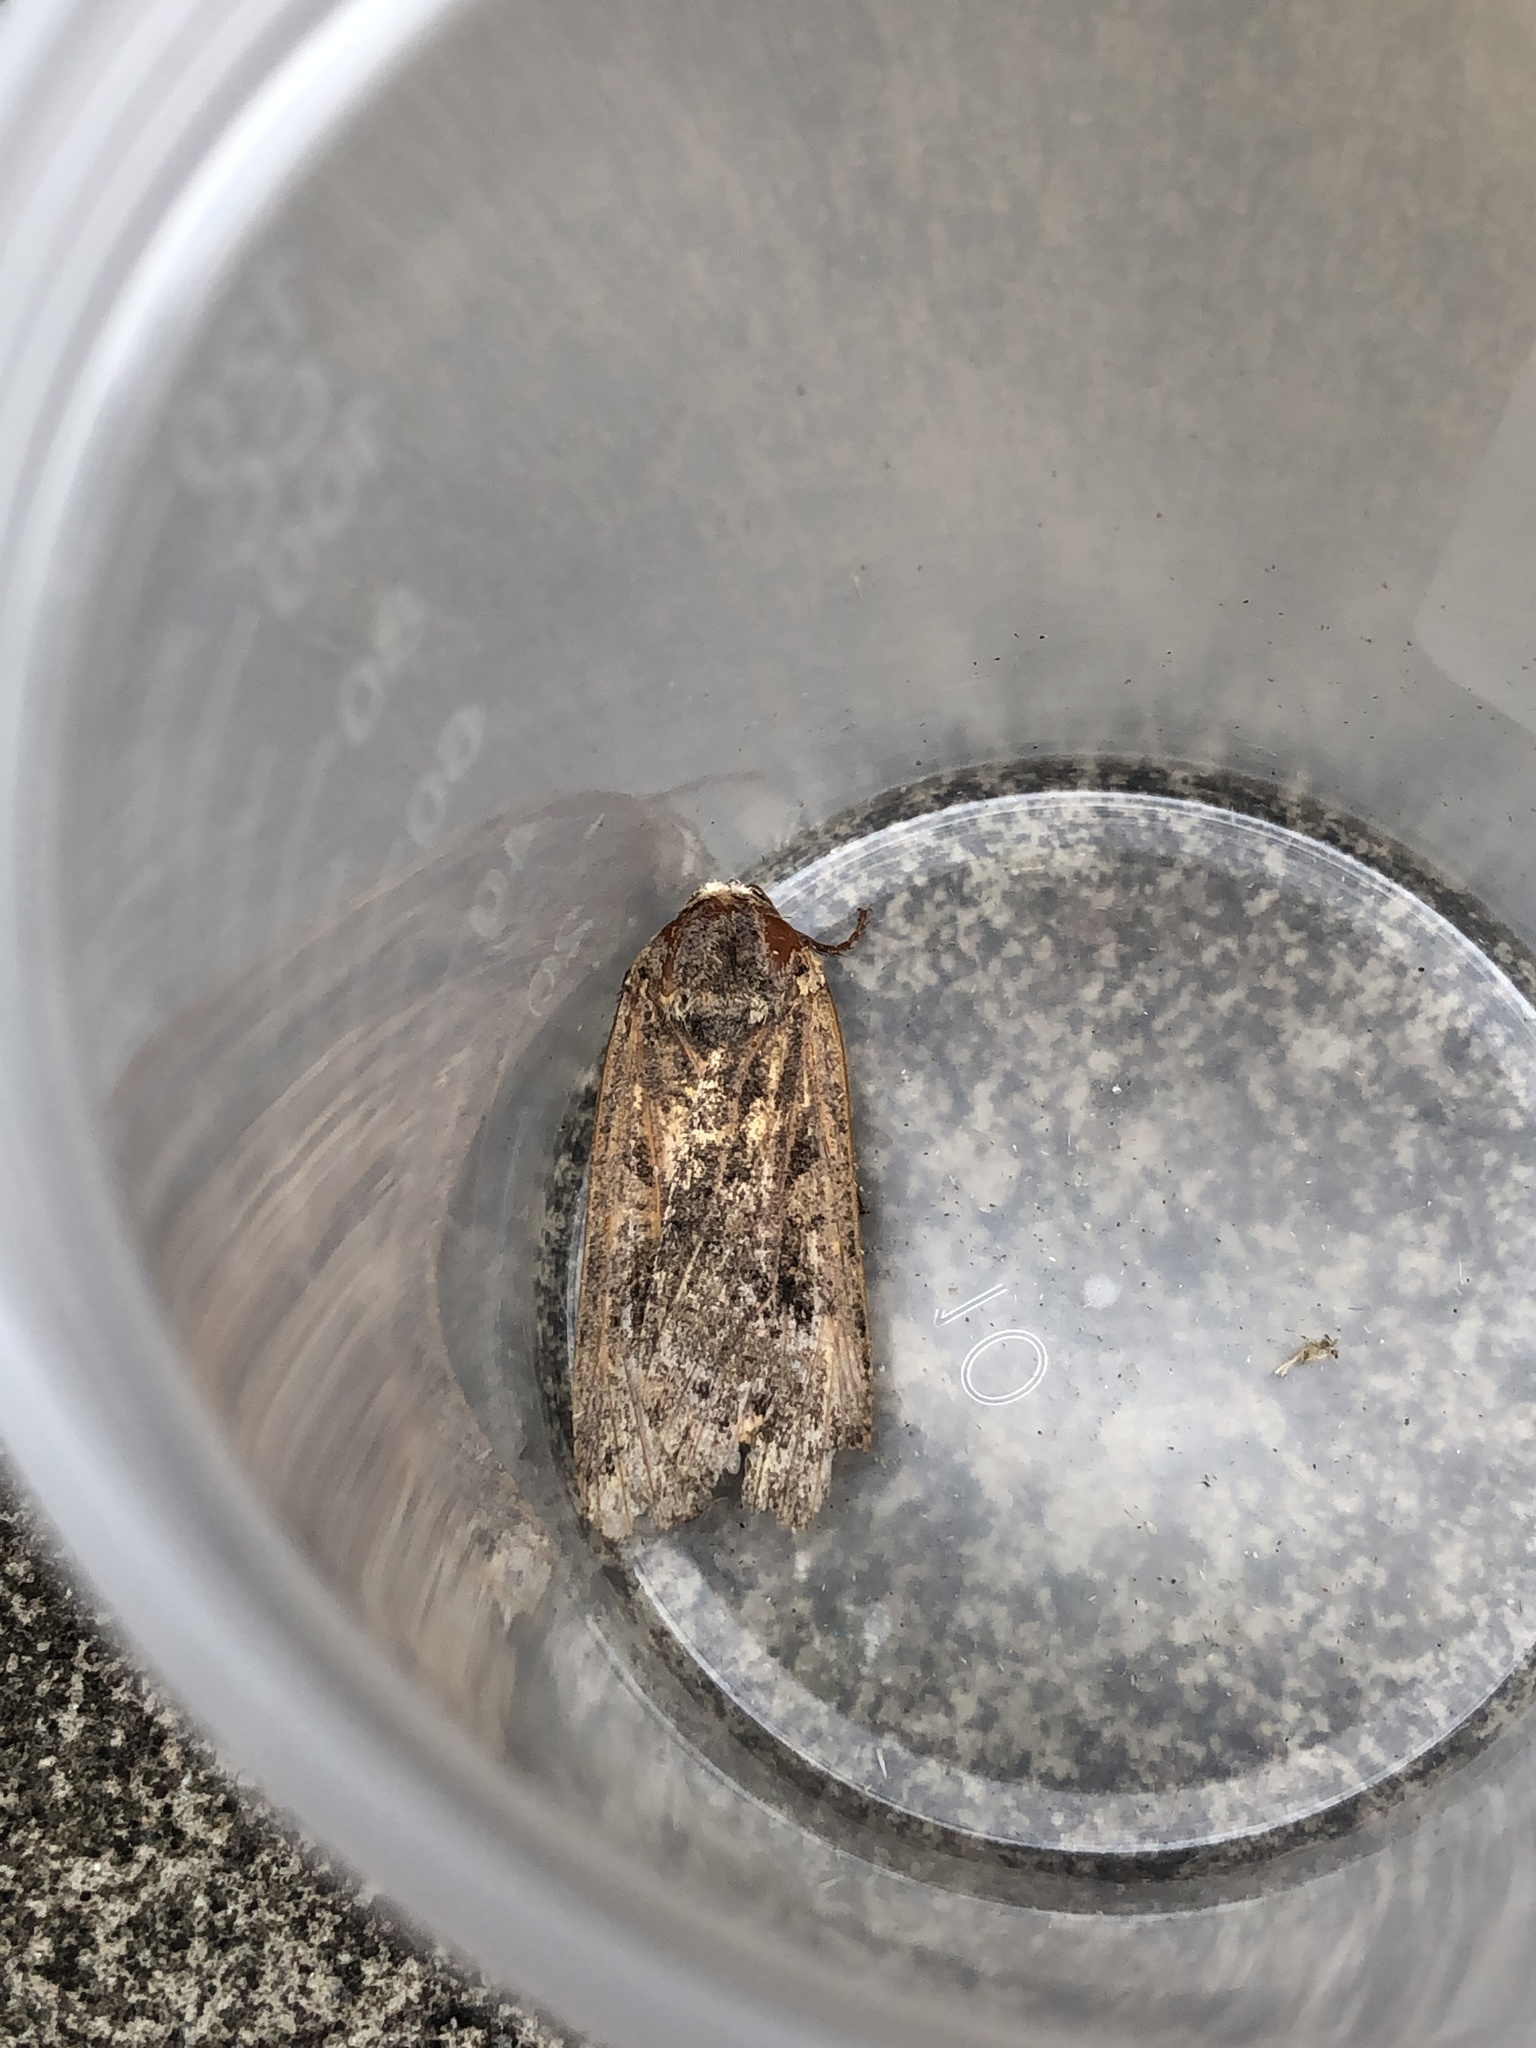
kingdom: Animalia
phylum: Arthropoda
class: Insecta
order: Lepidoptera
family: Noctuidae
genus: Noctua
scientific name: Noctua pronuba
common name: Large yellow underwing
